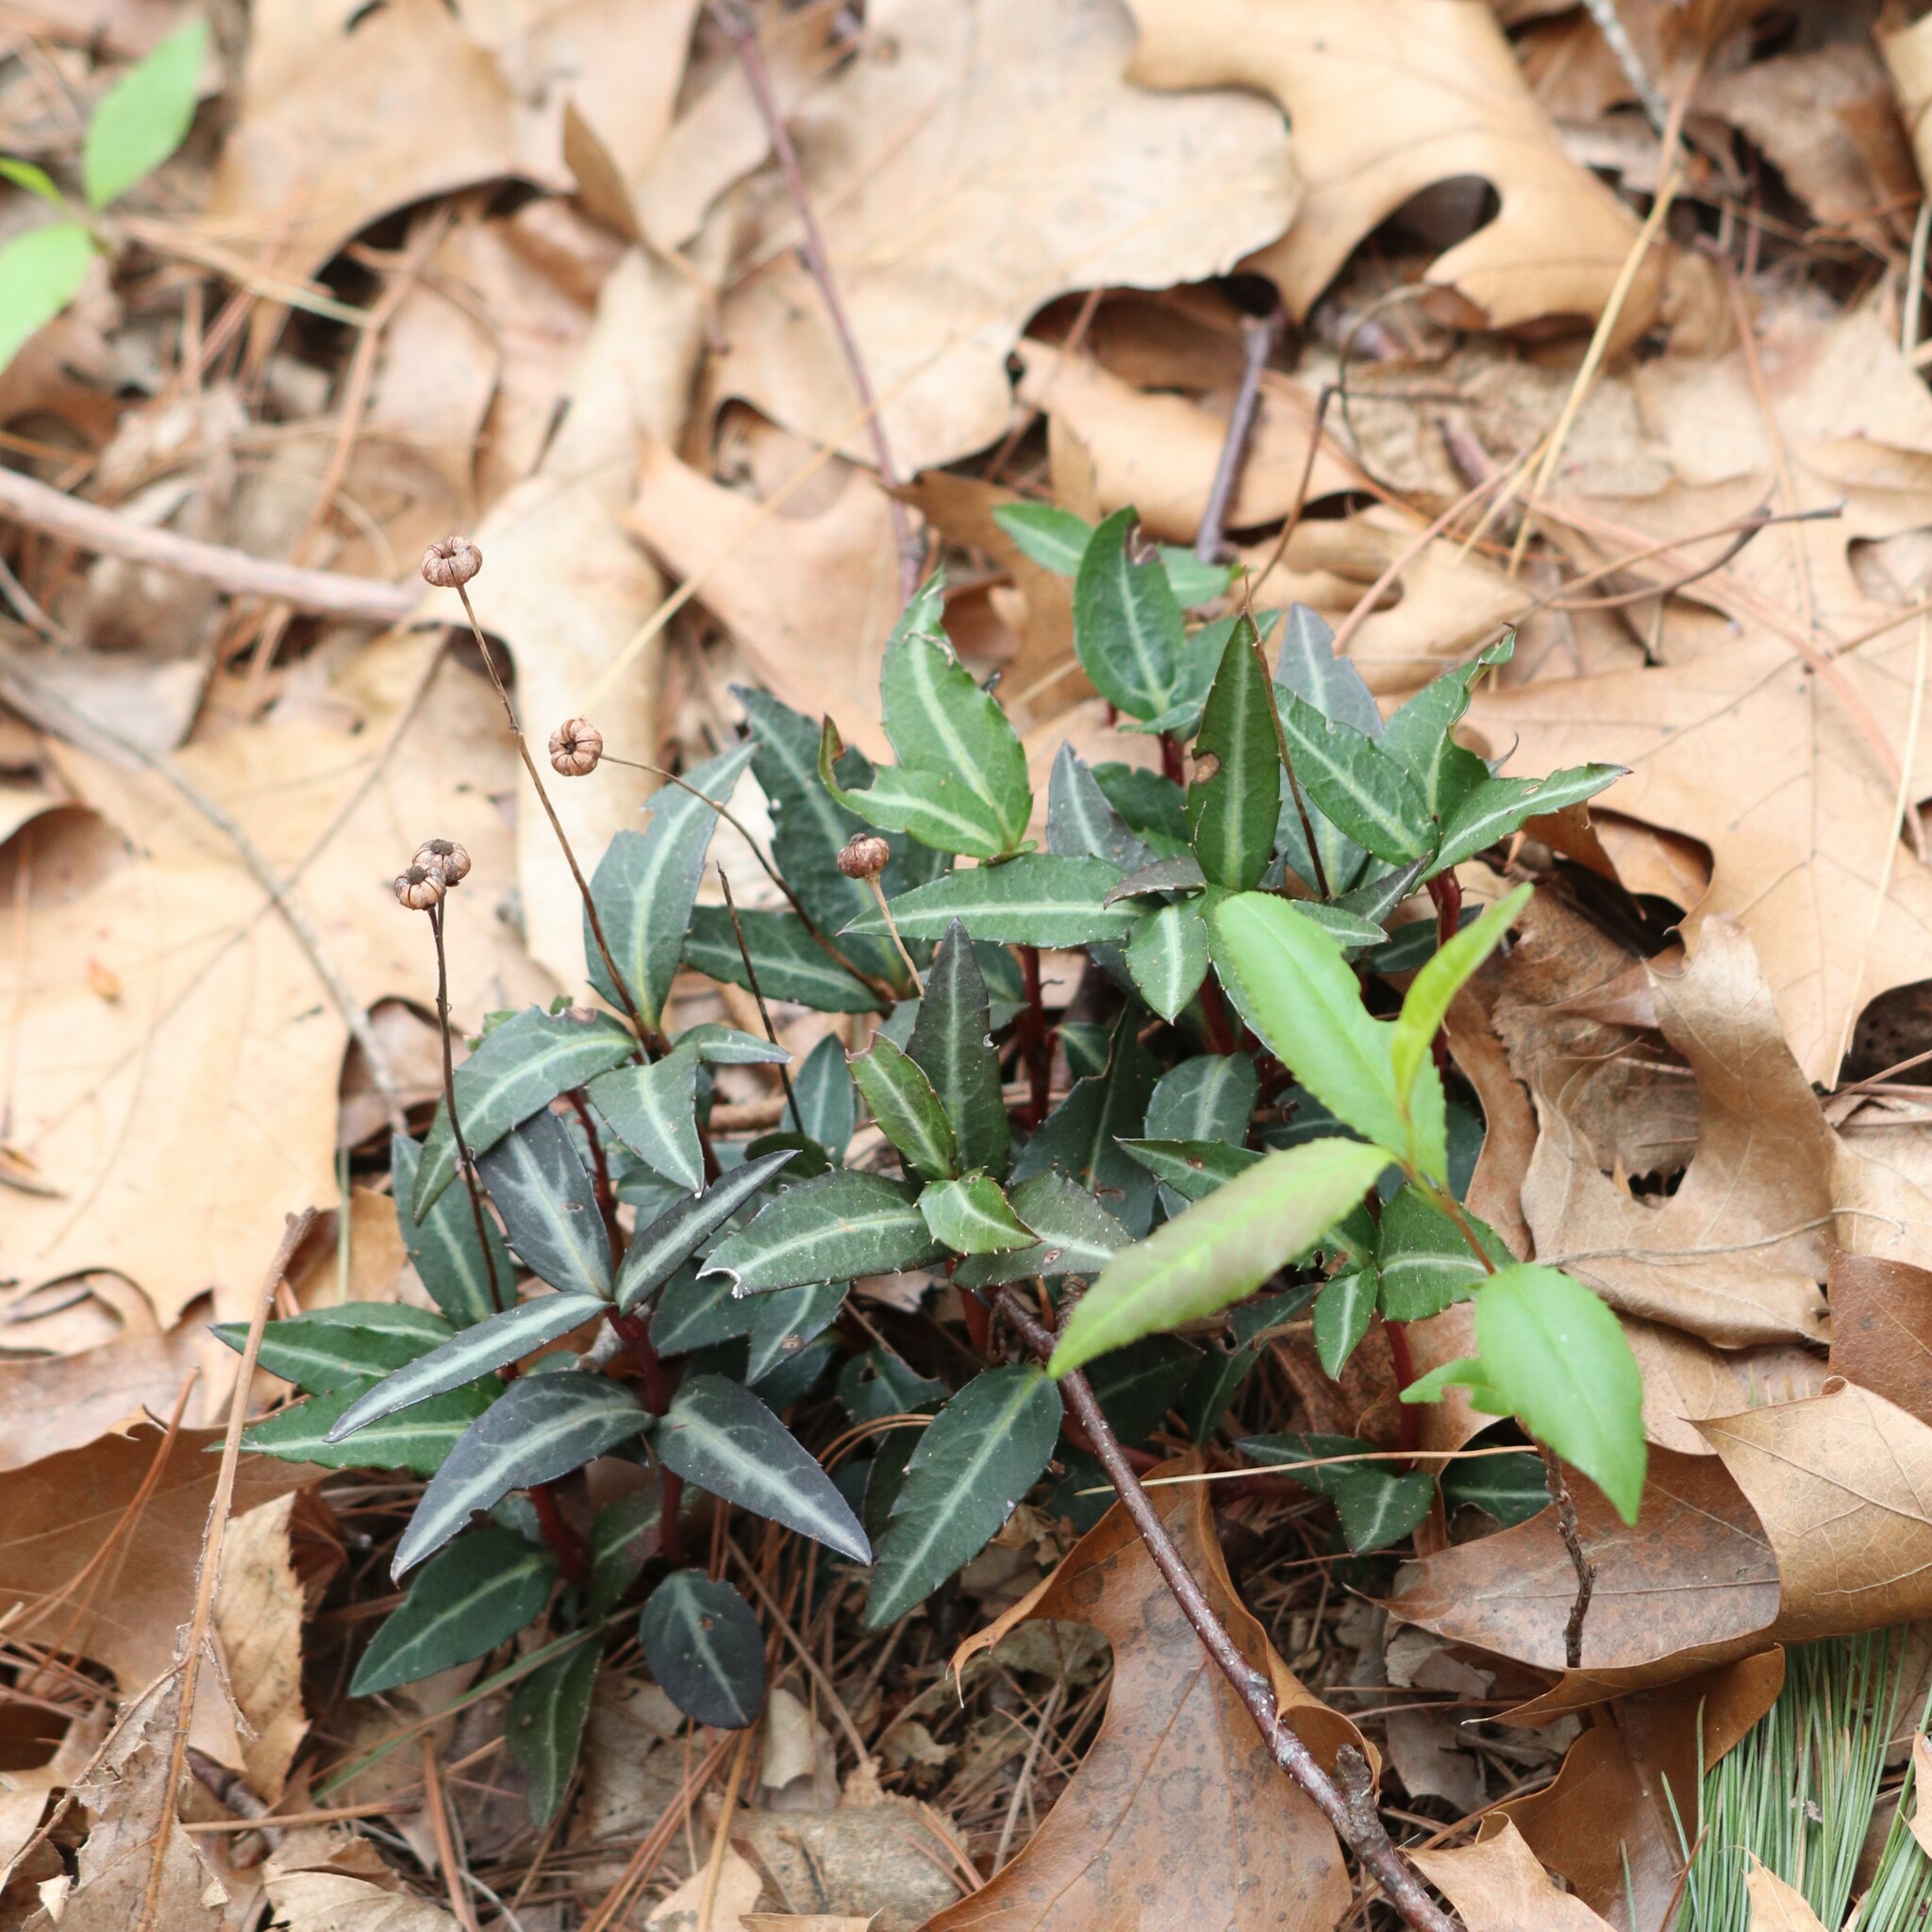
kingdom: Plantae
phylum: Tracheophyta
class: Magnoliopsida
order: Ericales
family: Ericaceae
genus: Chimaphila
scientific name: Chimaphila maculata
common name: Spotted pipsissewa
